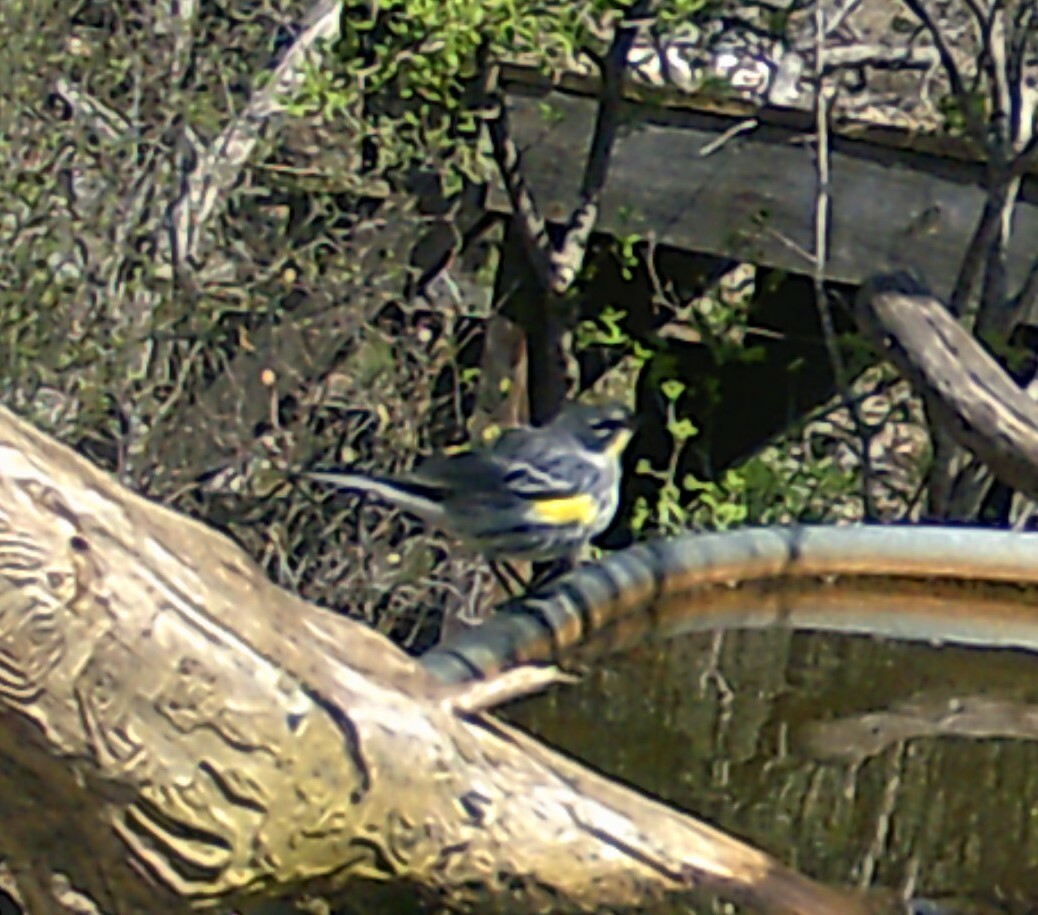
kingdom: Animalia
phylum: Chordata
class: Aves
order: Passeriformes
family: Parulidae
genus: Setophaga
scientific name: Setophaga coronata
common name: Myrtle warbler
